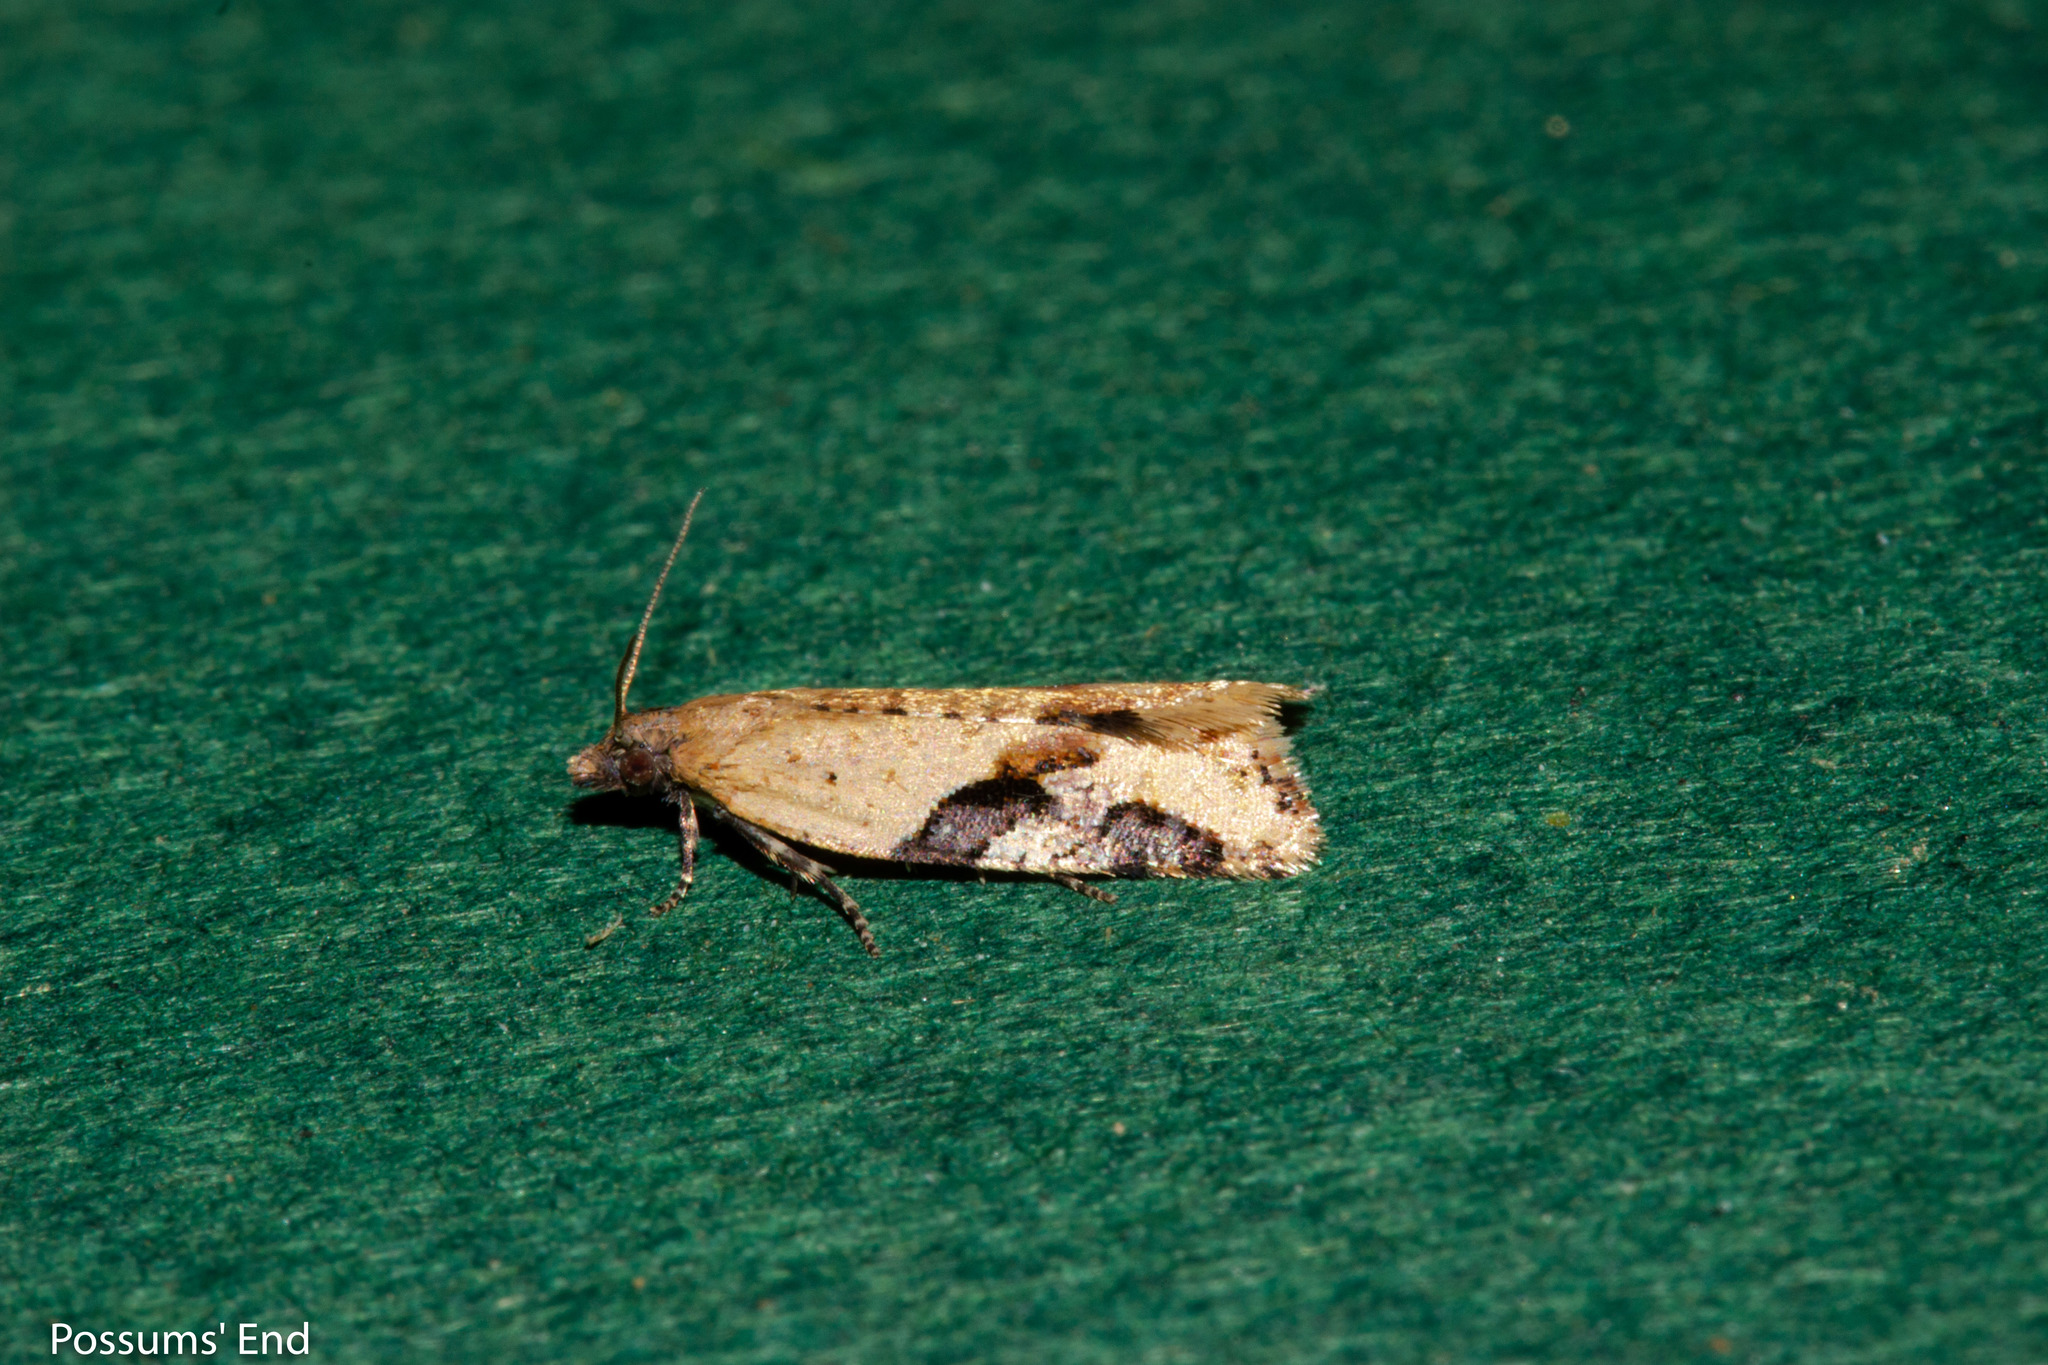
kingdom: Animalia
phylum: Arthropoda
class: Insecta
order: Lepidoptera
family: Tortricidae
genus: Capua
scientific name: Capua semiferana
